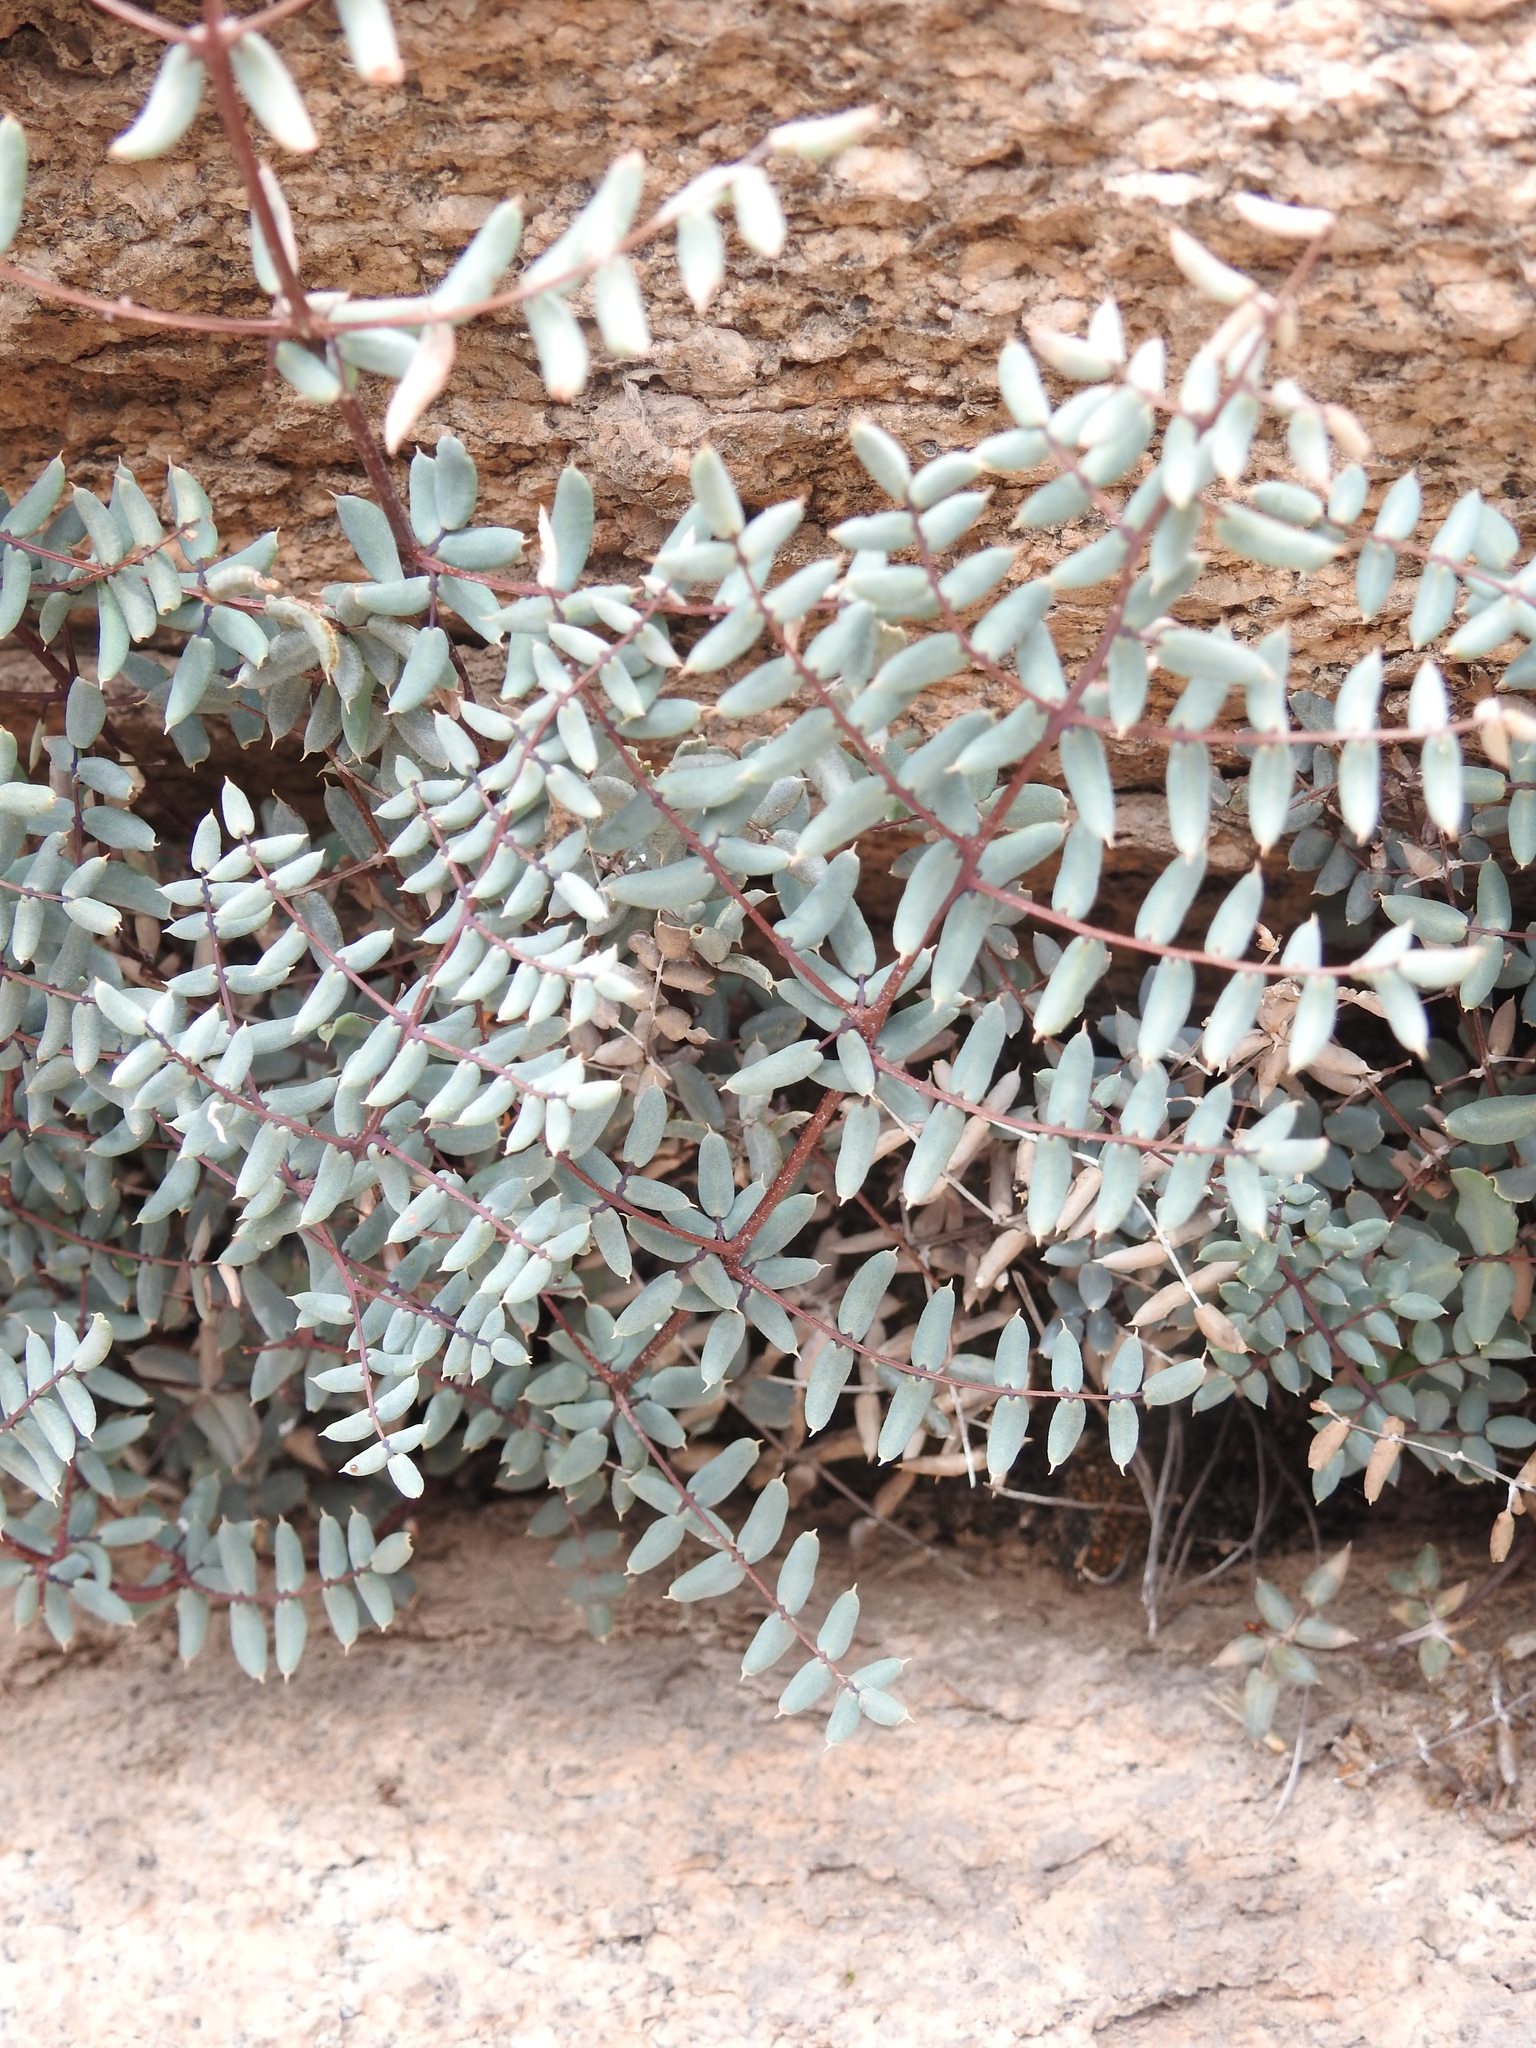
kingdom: Plantae
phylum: Tracheophyta
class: Polypodiopsida
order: Polypodiales
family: Pteridaceae
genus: Pellaea
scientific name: Pellaea truncata
